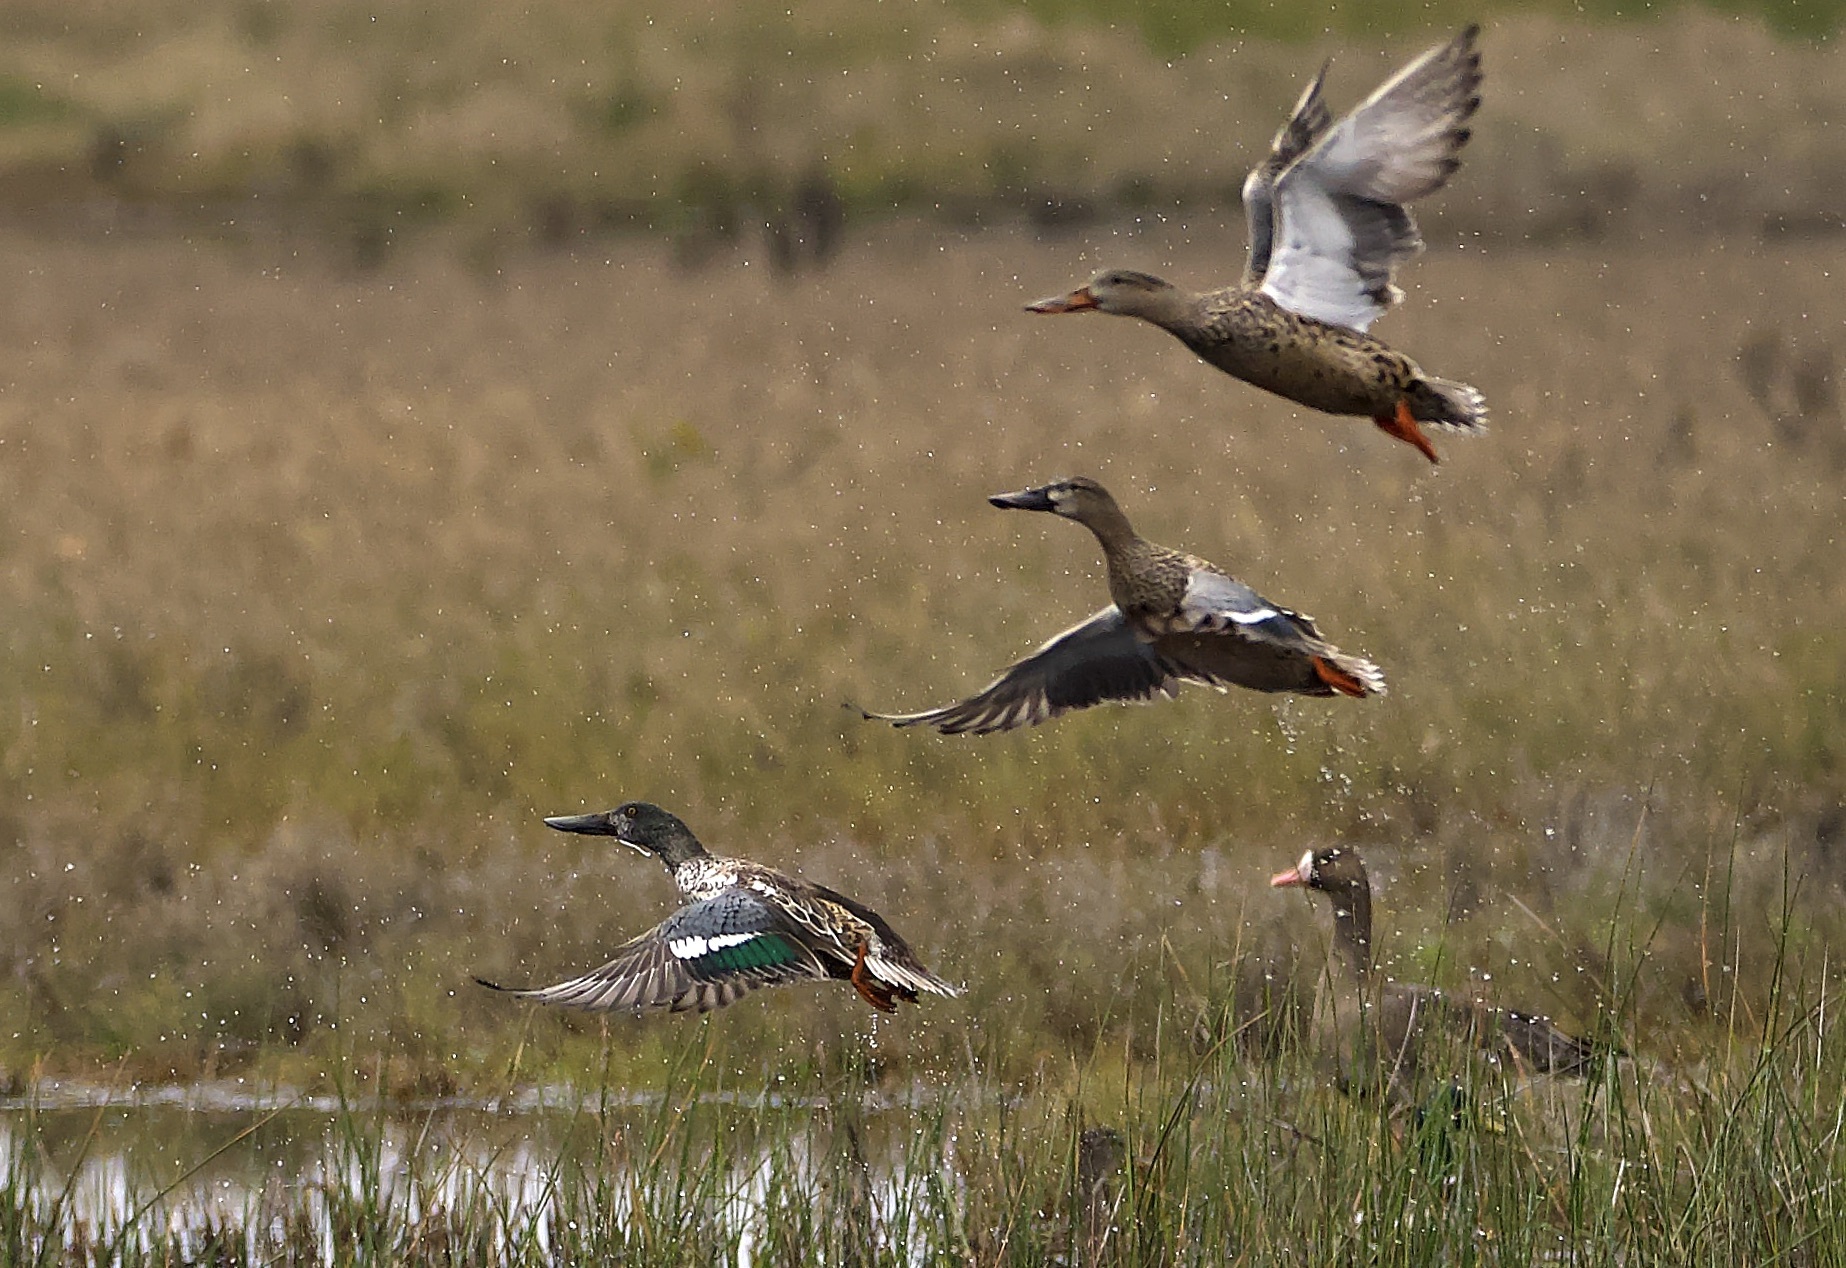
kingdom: Animalia
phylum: Chordata
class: Aves
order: Anseriformes
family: Anatidae
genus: Spatula
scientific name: Spatula clypeata
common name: Northern shoveler
